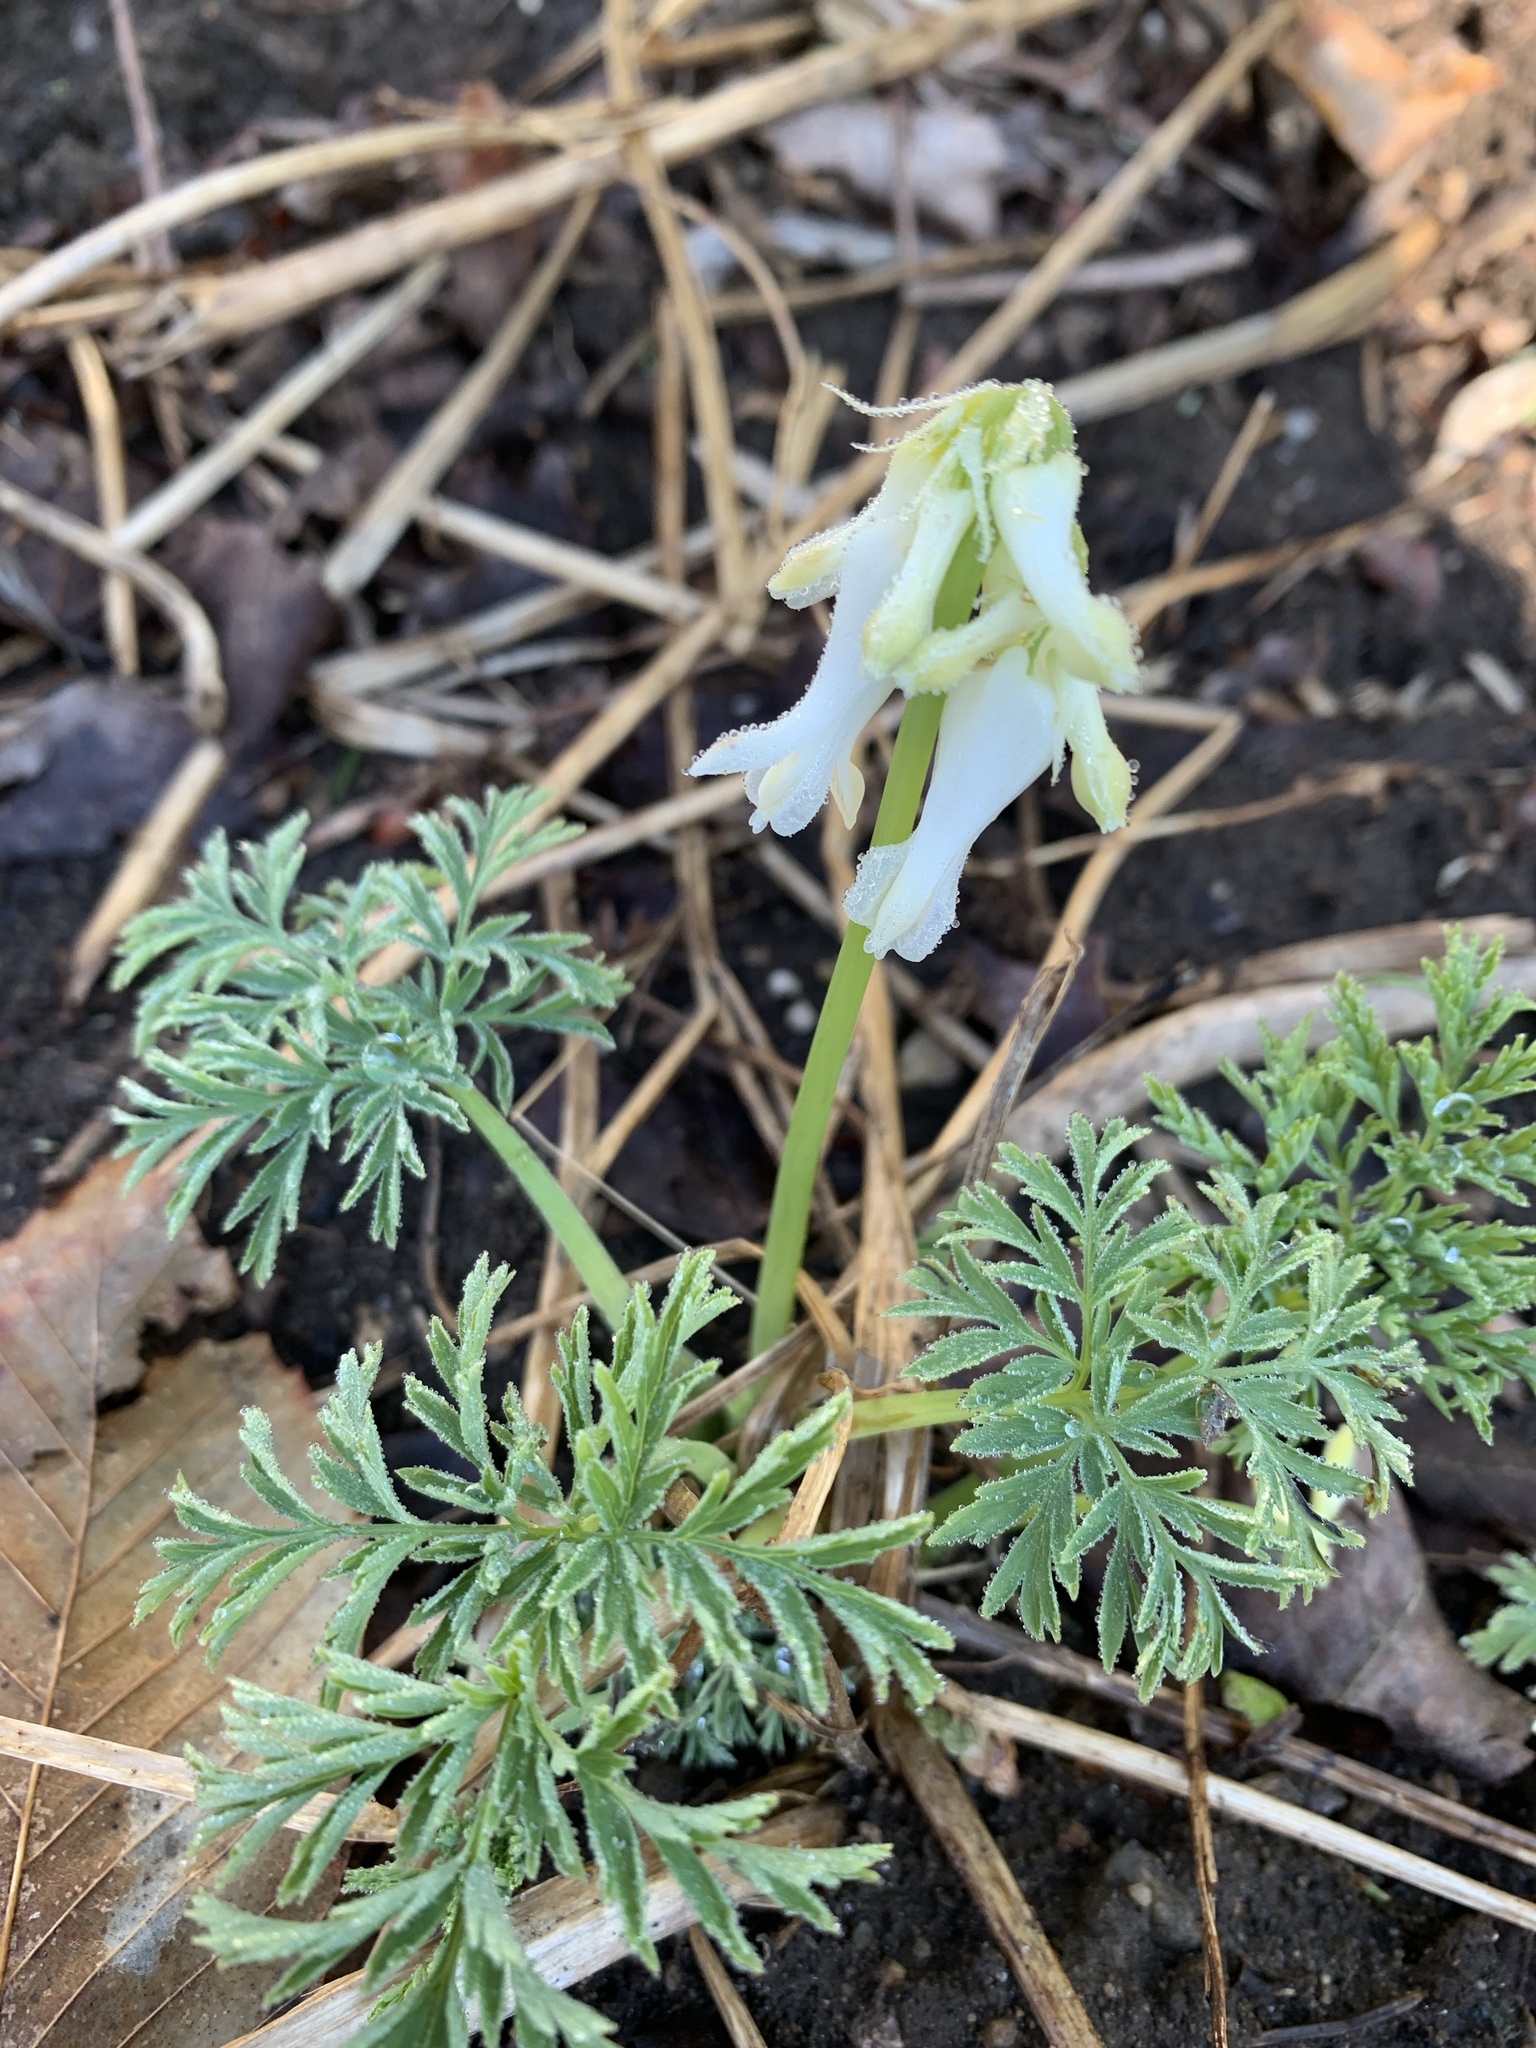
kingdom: Plantae
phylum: Tracheophyta
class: Magnoliopsida
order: Ranunculales
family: Papaveraceae
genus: Dicentra
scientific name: Dicentra canadensis
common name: Squirrel-corn
